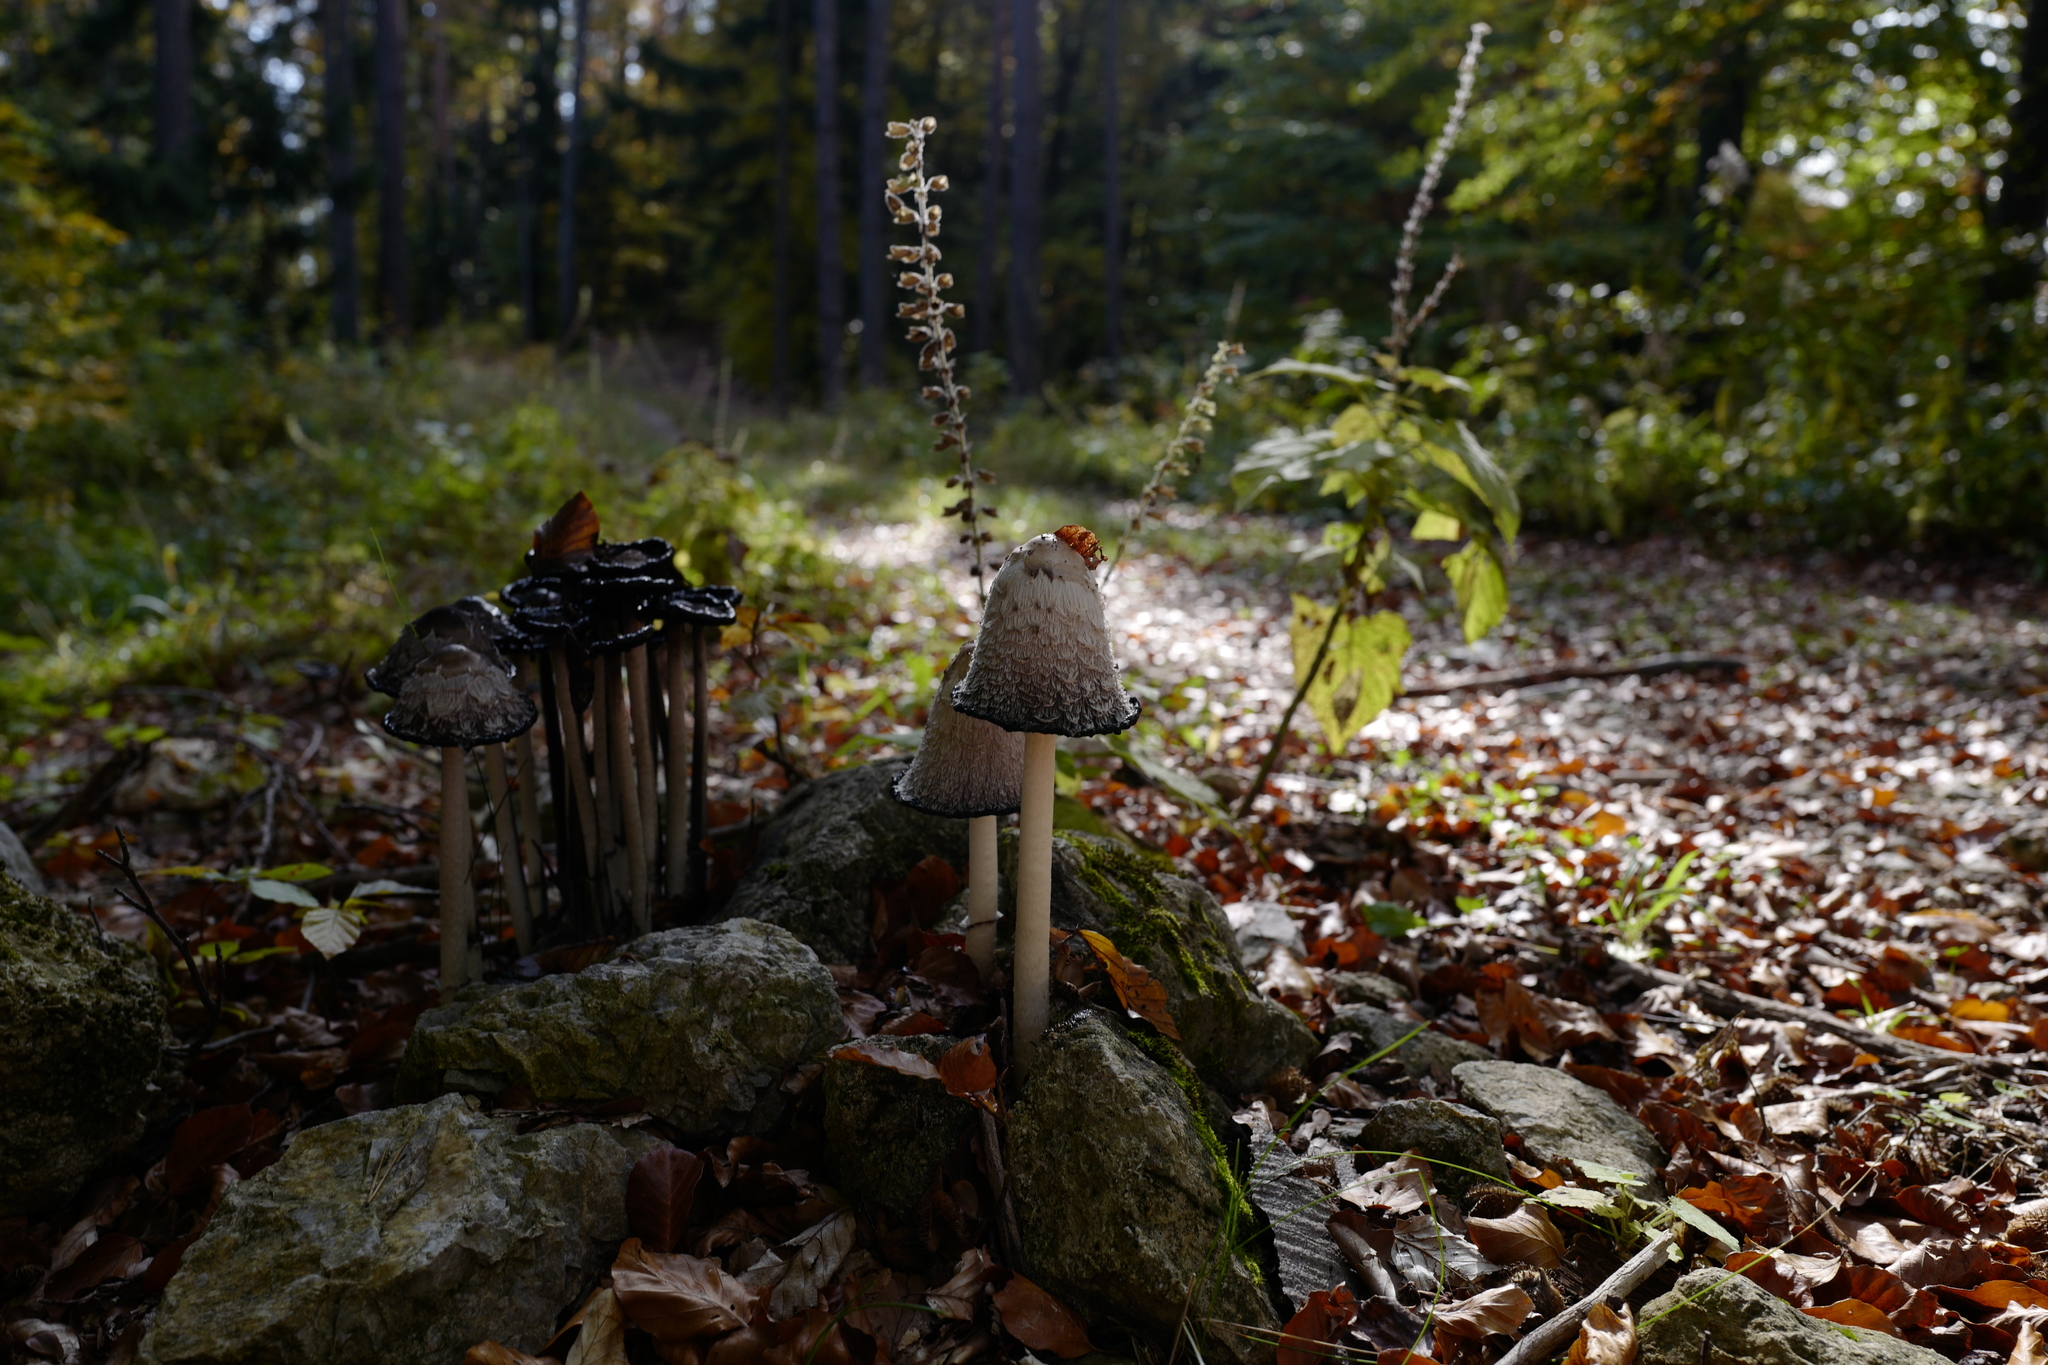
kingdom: Fungi
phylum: Basidiomycota
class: Agaricomycetes
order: Agaricales
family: Agaricaceae
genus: Coprinus
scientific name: Coprinus comatus
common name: Lawyer's wig
